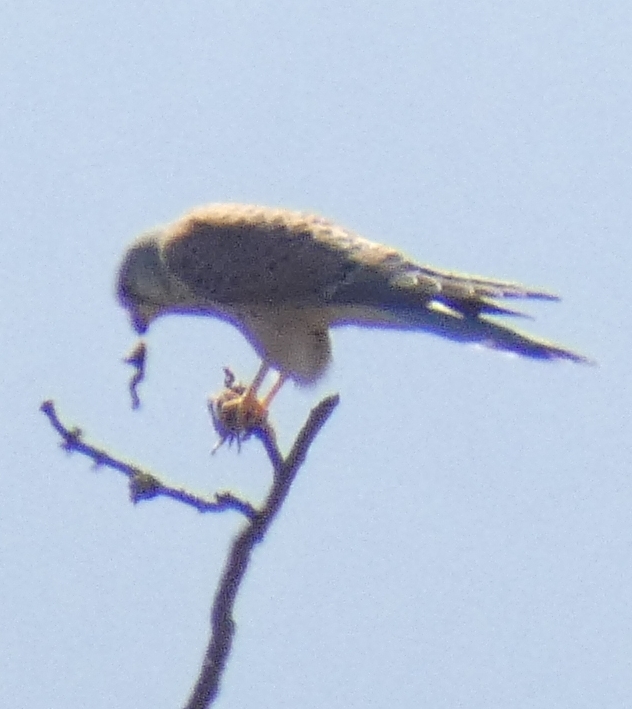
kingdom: Animalia
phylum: Chordata
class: Aves
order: Falconiformes
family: Falconidae
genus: Falco
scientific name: Falco tinnunculus
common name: Common kestrel
